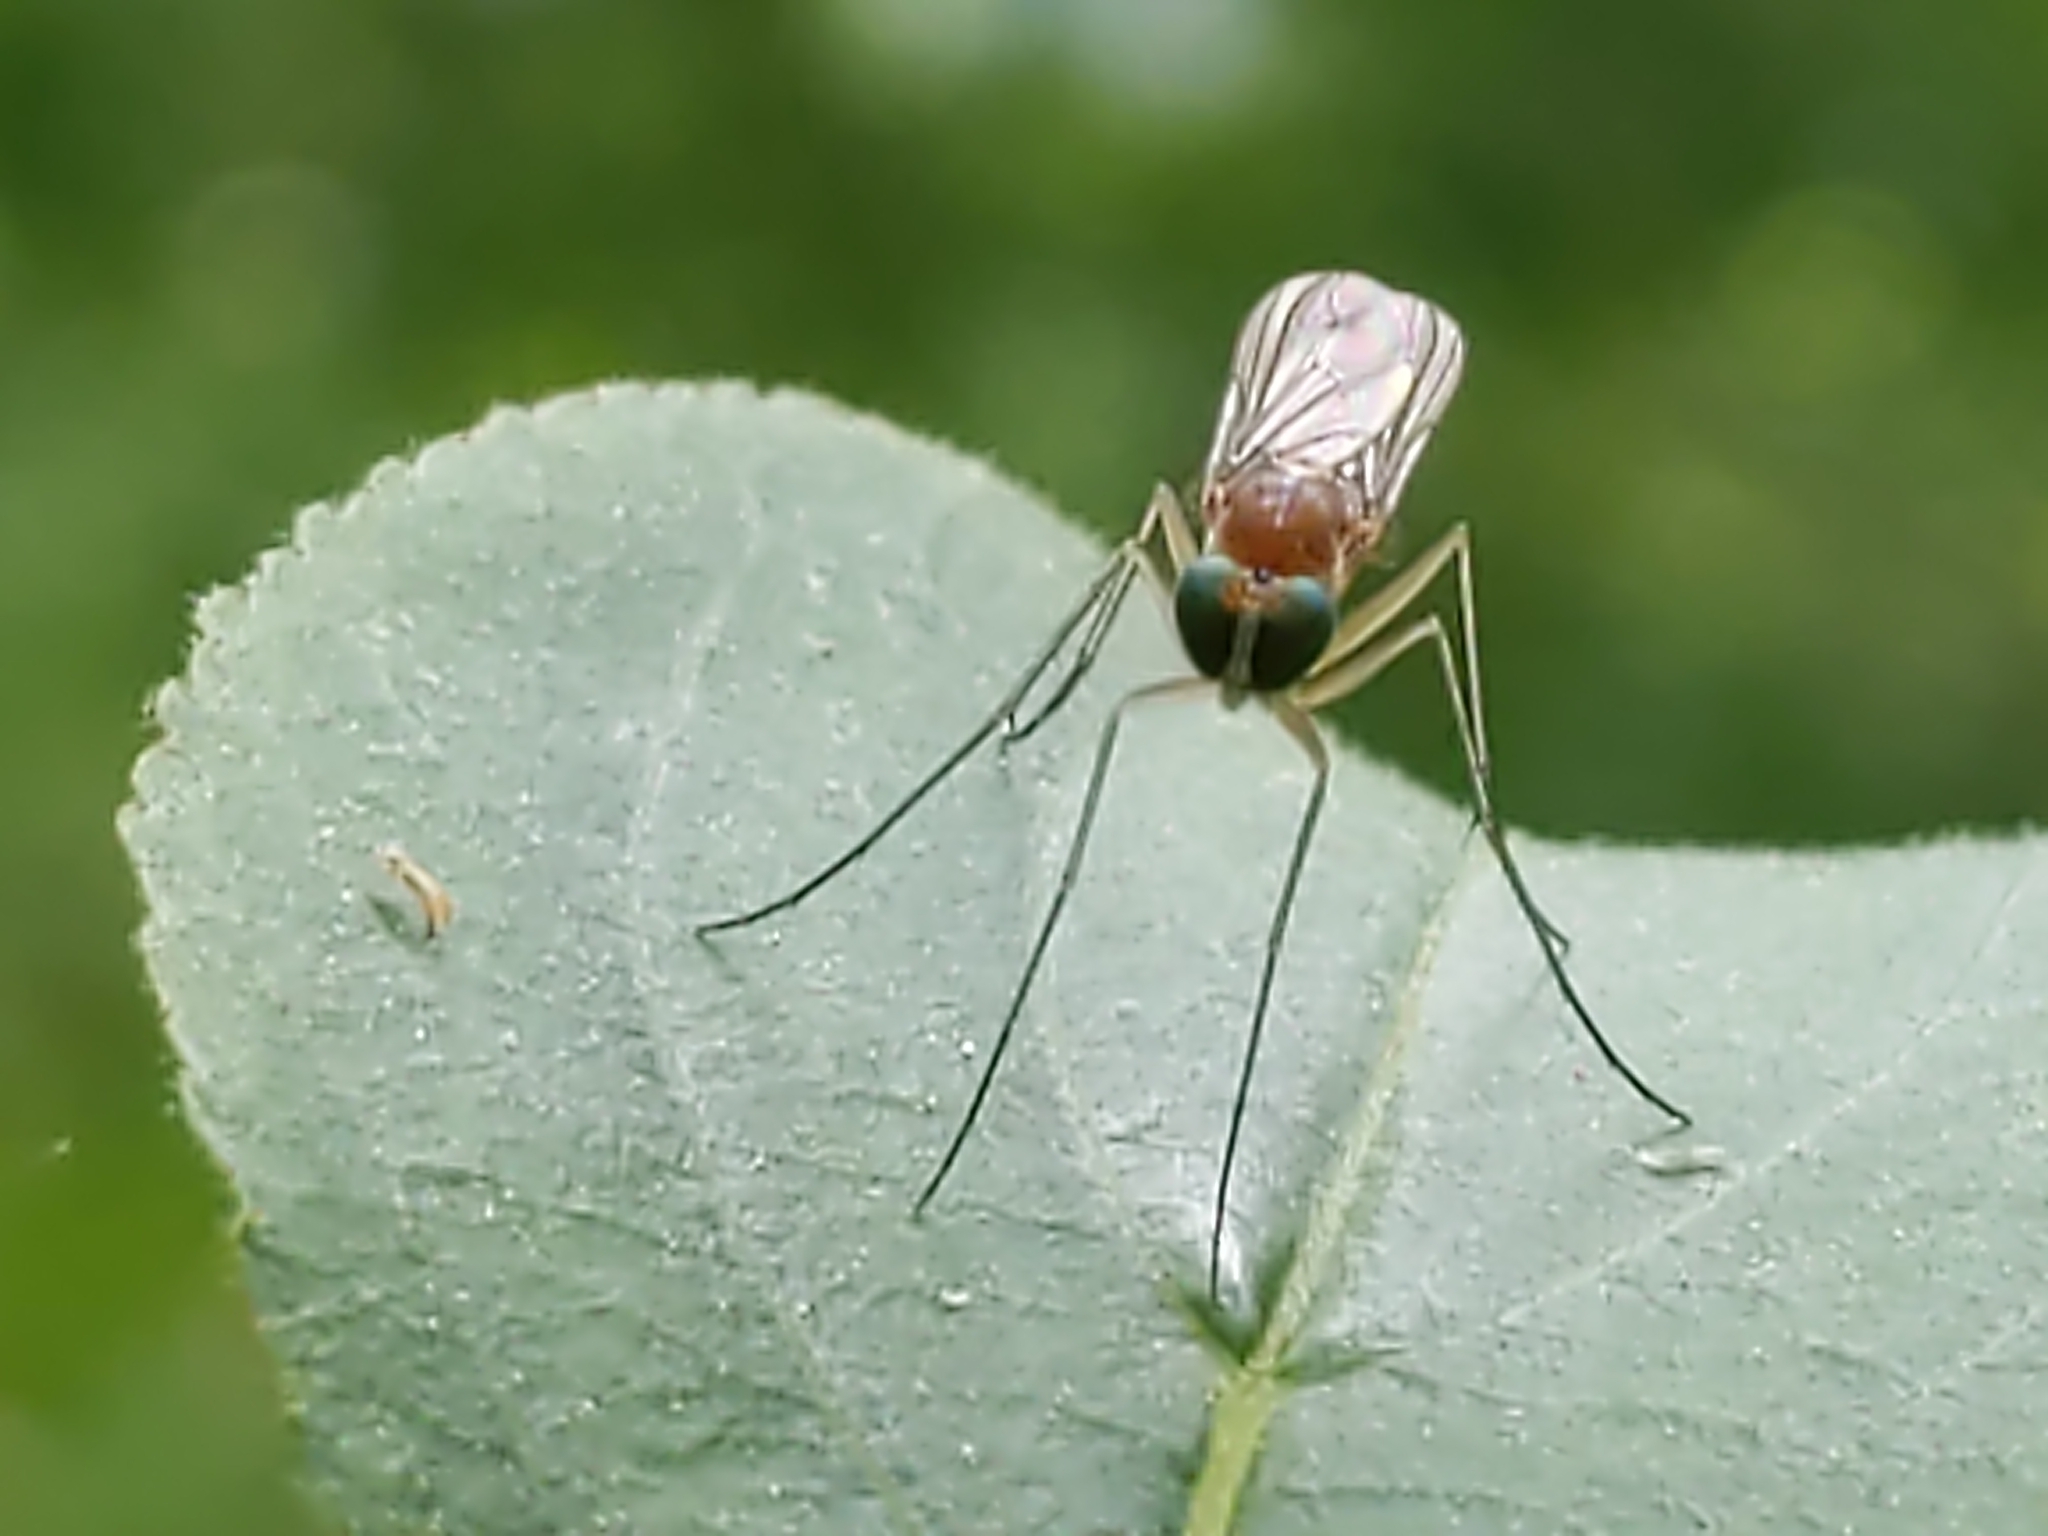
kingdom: Animalia
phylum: Arthropoda
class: Insecta
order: Diptera
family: Dolichopodidae
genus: Neurigona
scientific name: Neurigona
